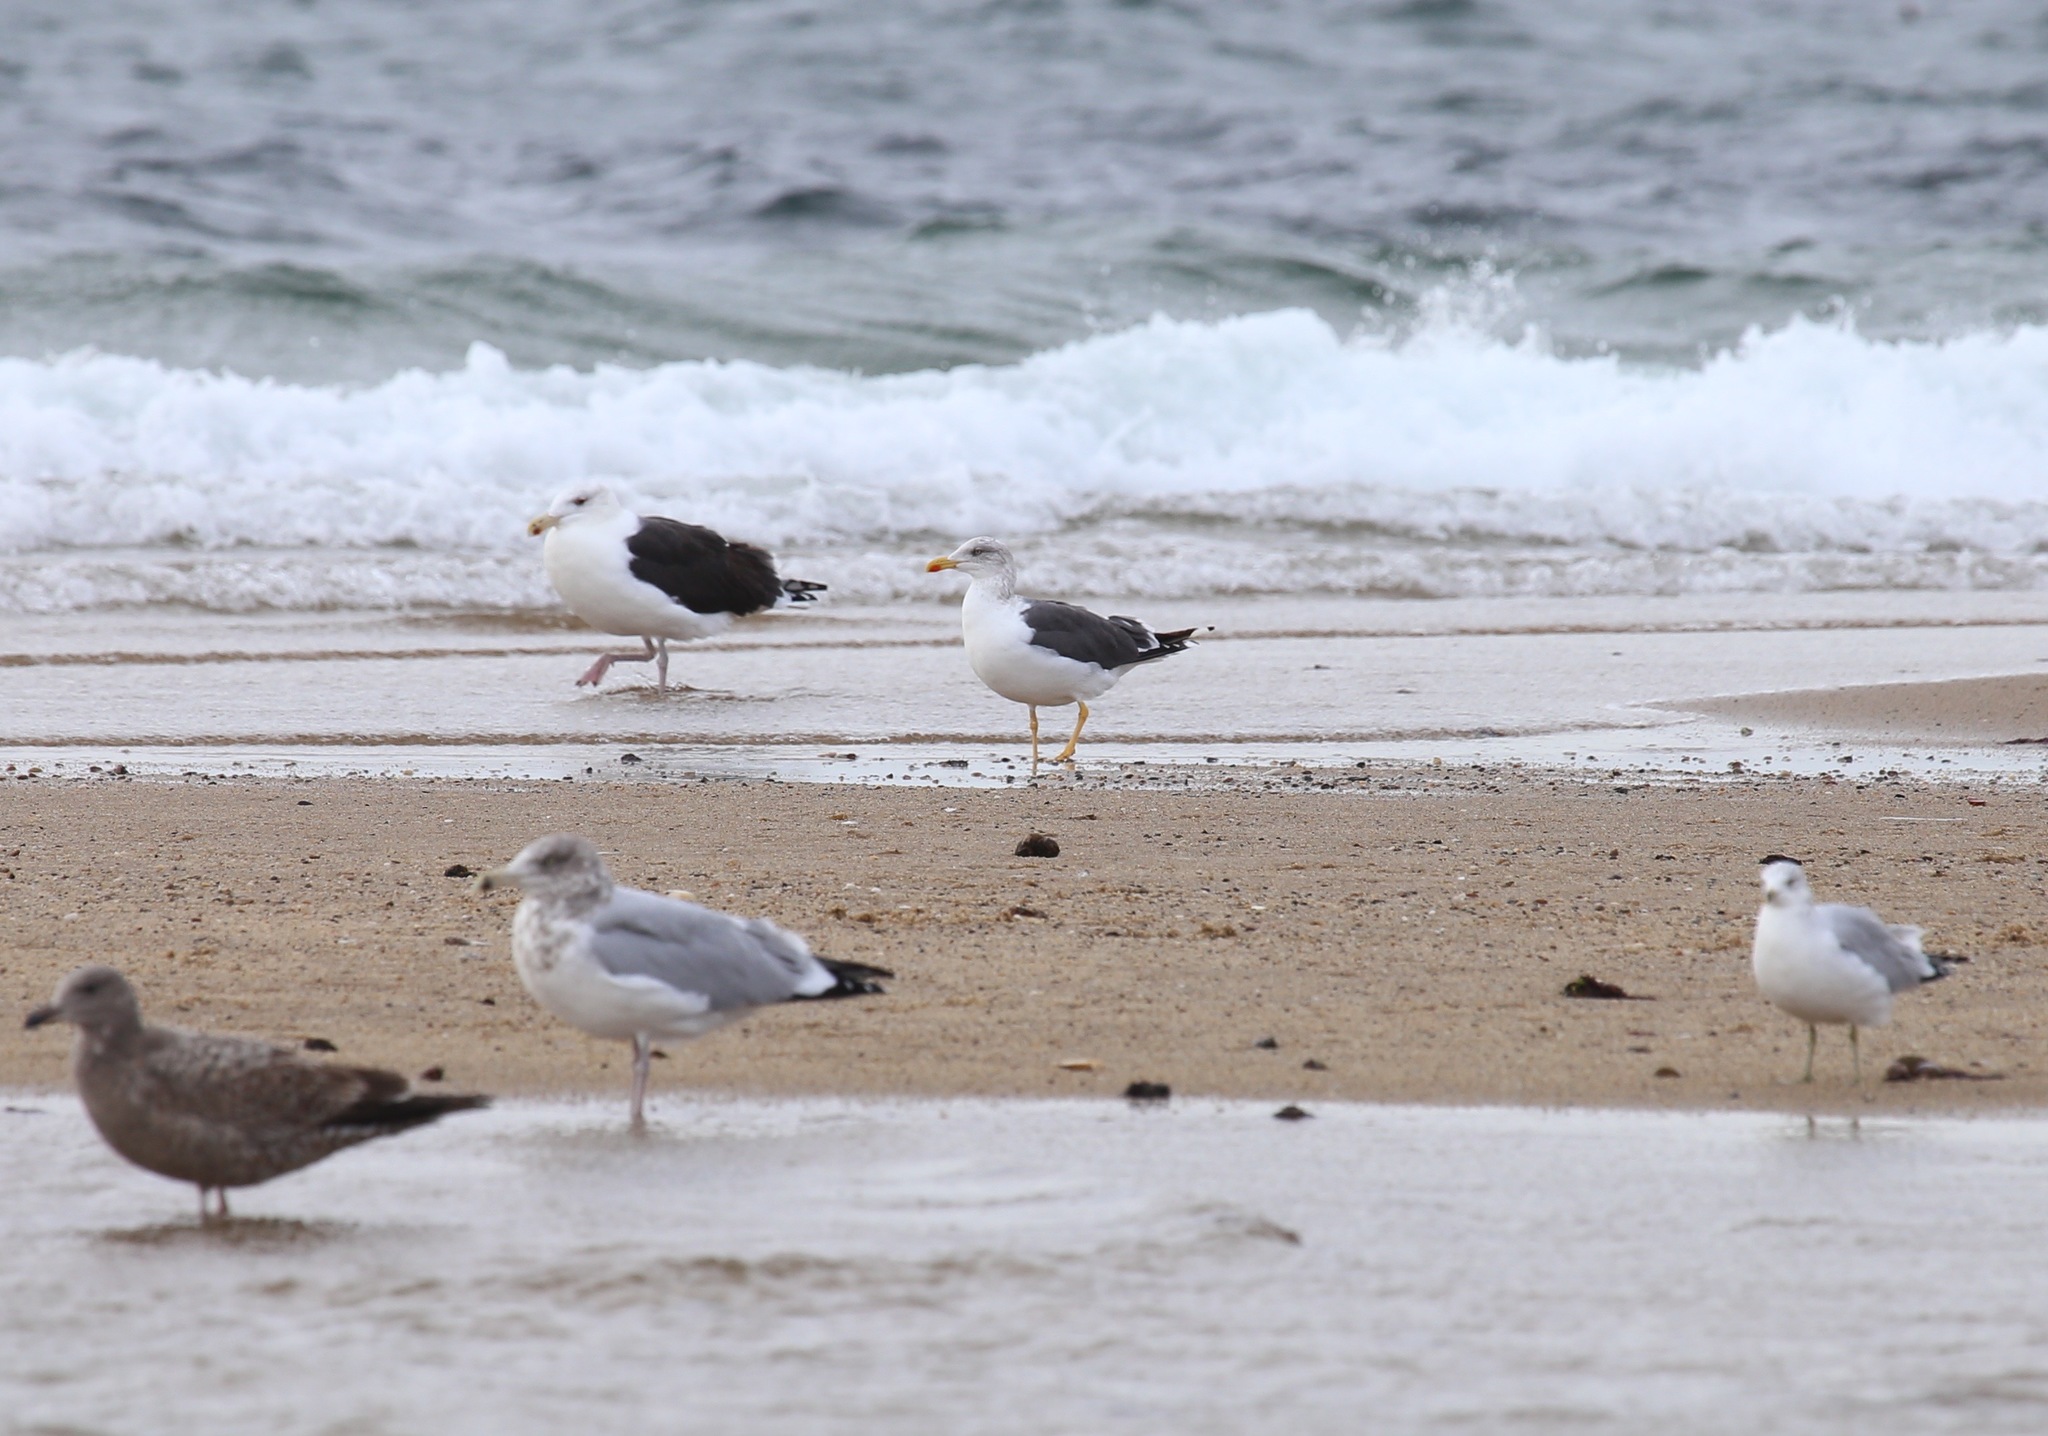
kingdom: Animalia
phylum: Chordata
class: Aves
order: Charadriiformes
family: Laridae
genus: Larus
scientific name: Larus fuscus
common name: Lesser black-backed gull
